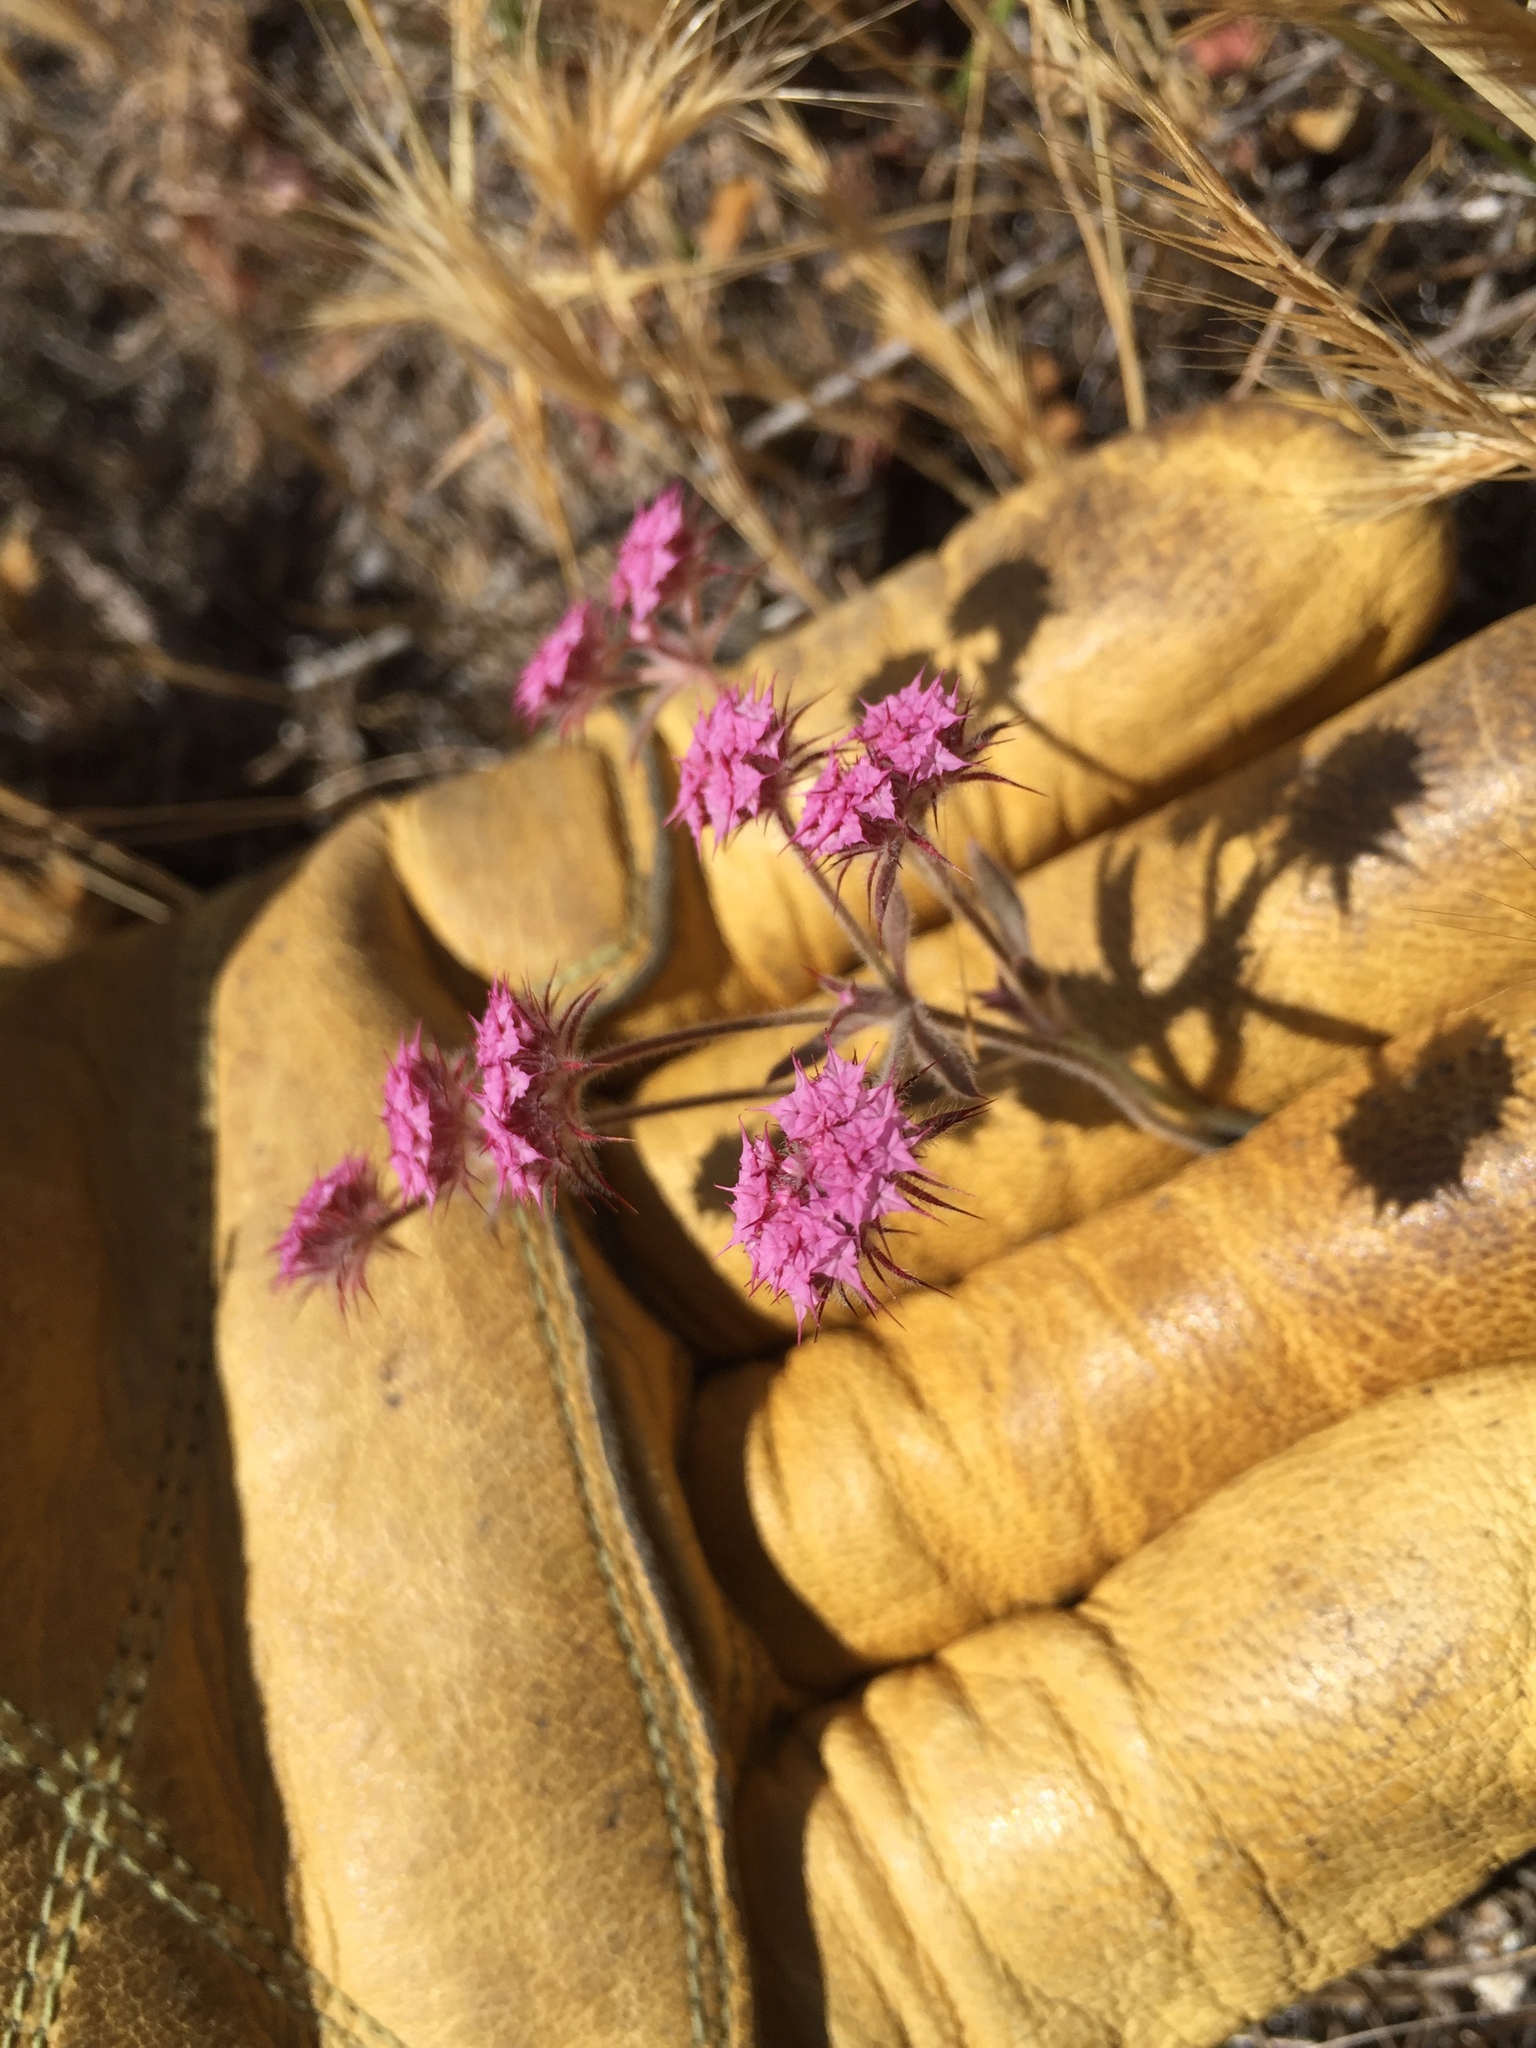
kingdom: Plantae
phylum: Tracheophyta
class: Magnoliopsida
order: Caryophyllales
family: Polygonaceae
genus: Chorizanthe
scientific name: Chorizanthe douglasii
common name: Douglas's spineflower
